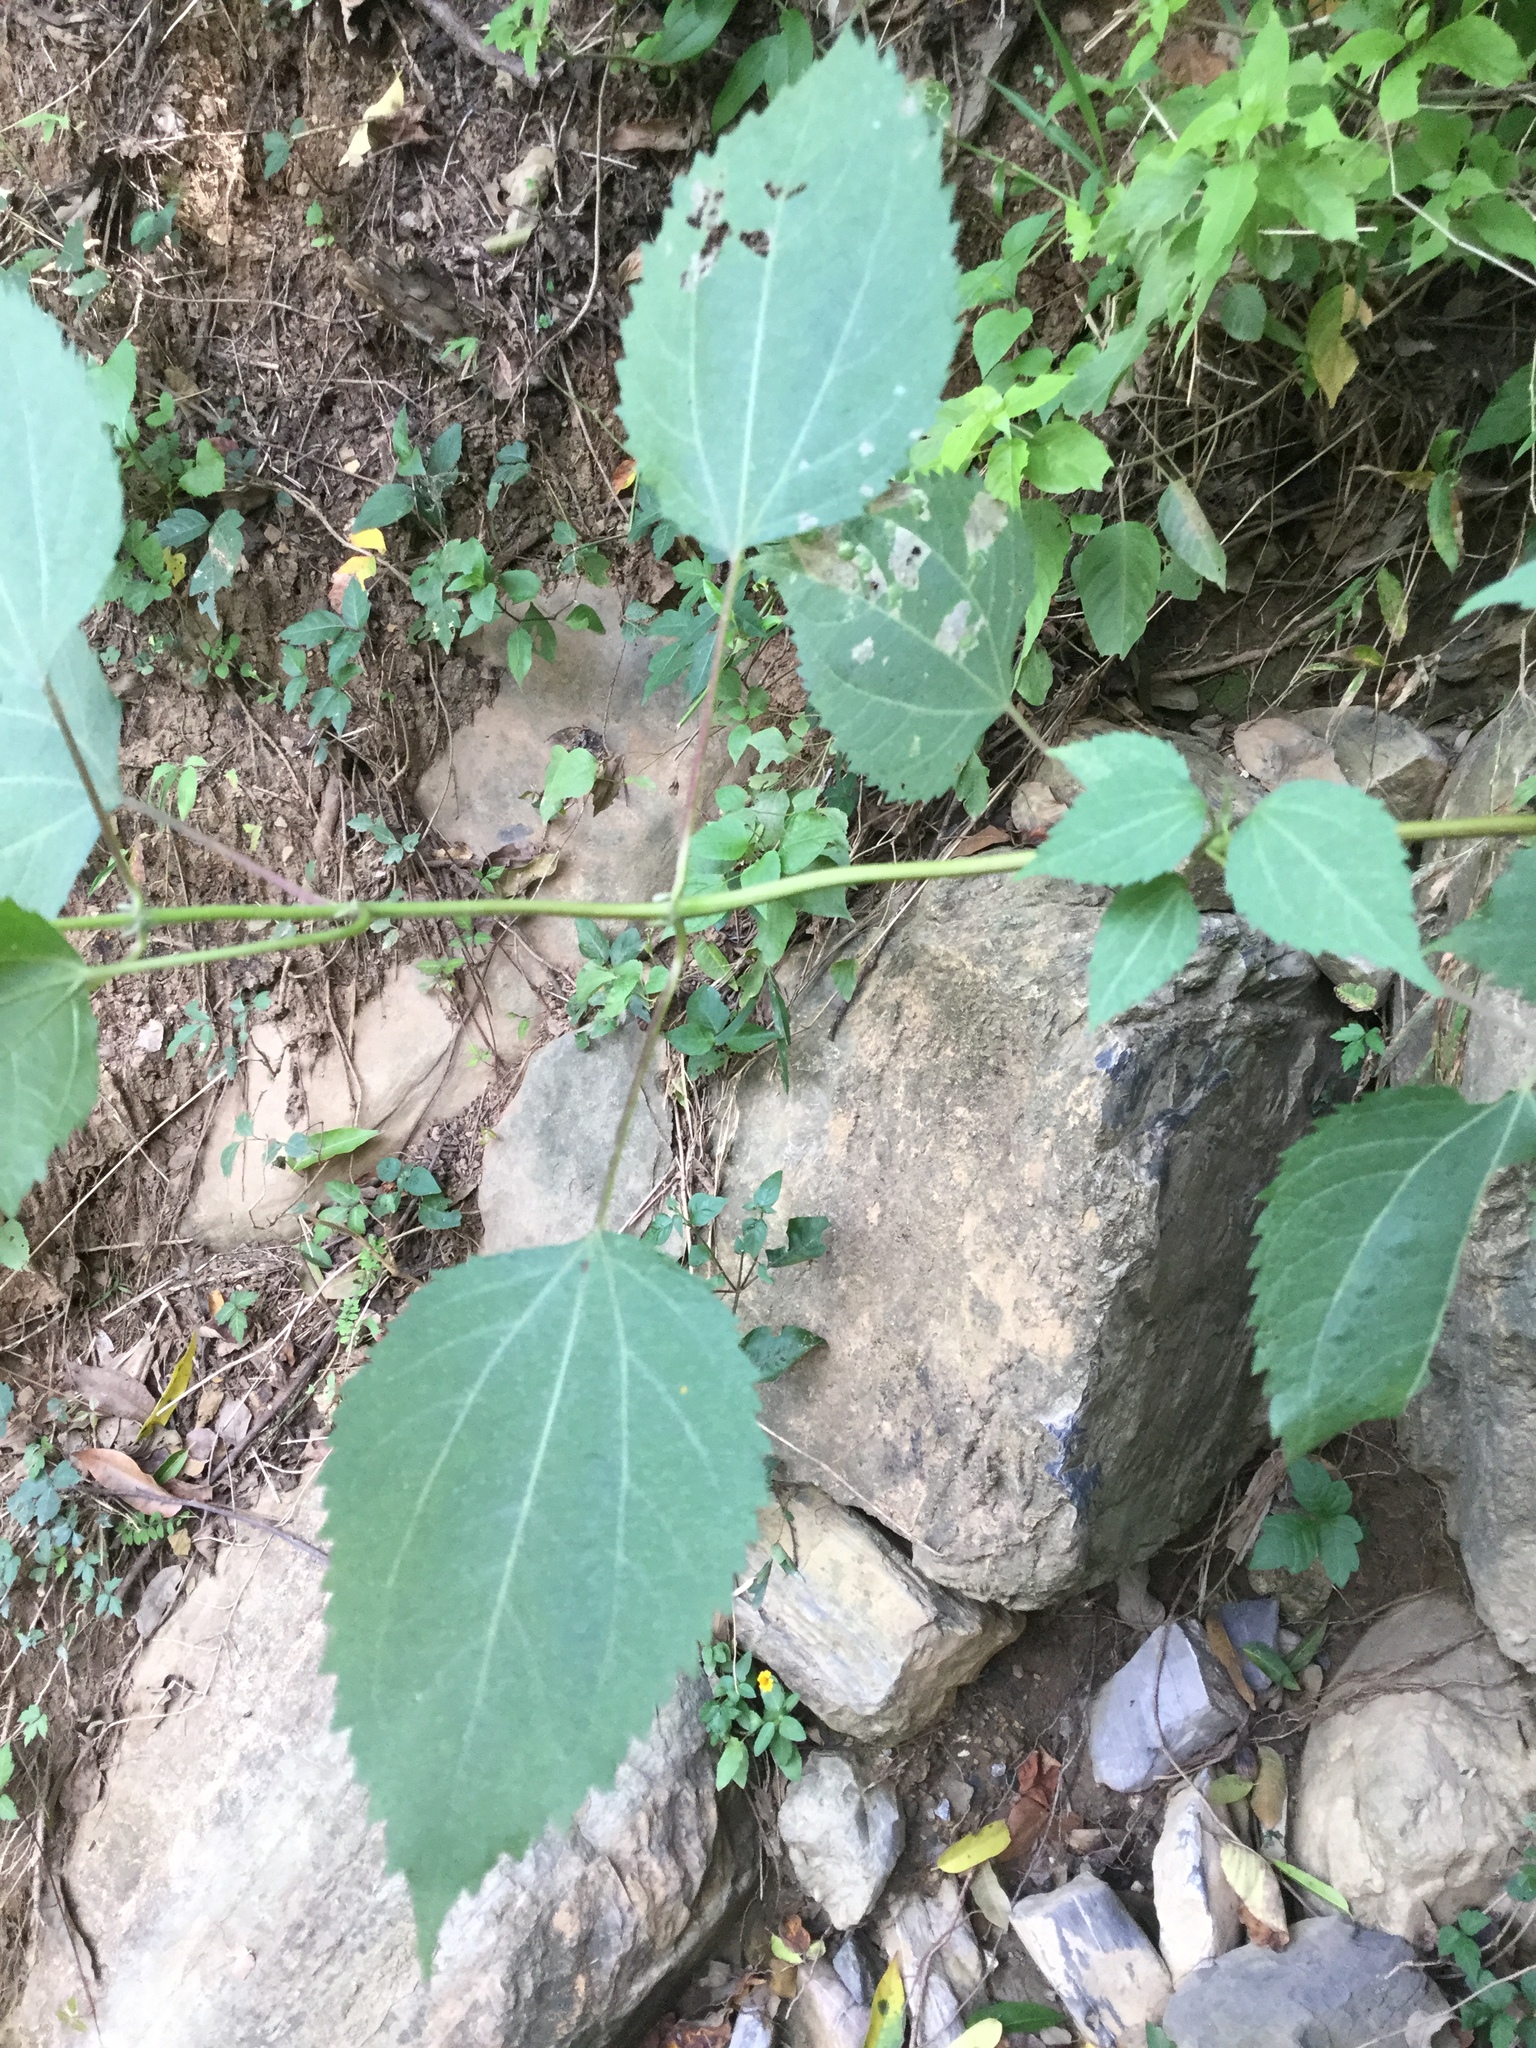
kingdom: Plantae
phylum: Tracheophyta
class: Magnoliopsida
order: Asterales
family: Asteraceae
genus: Hymenostephium
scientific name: Hymenostephium cordatum
